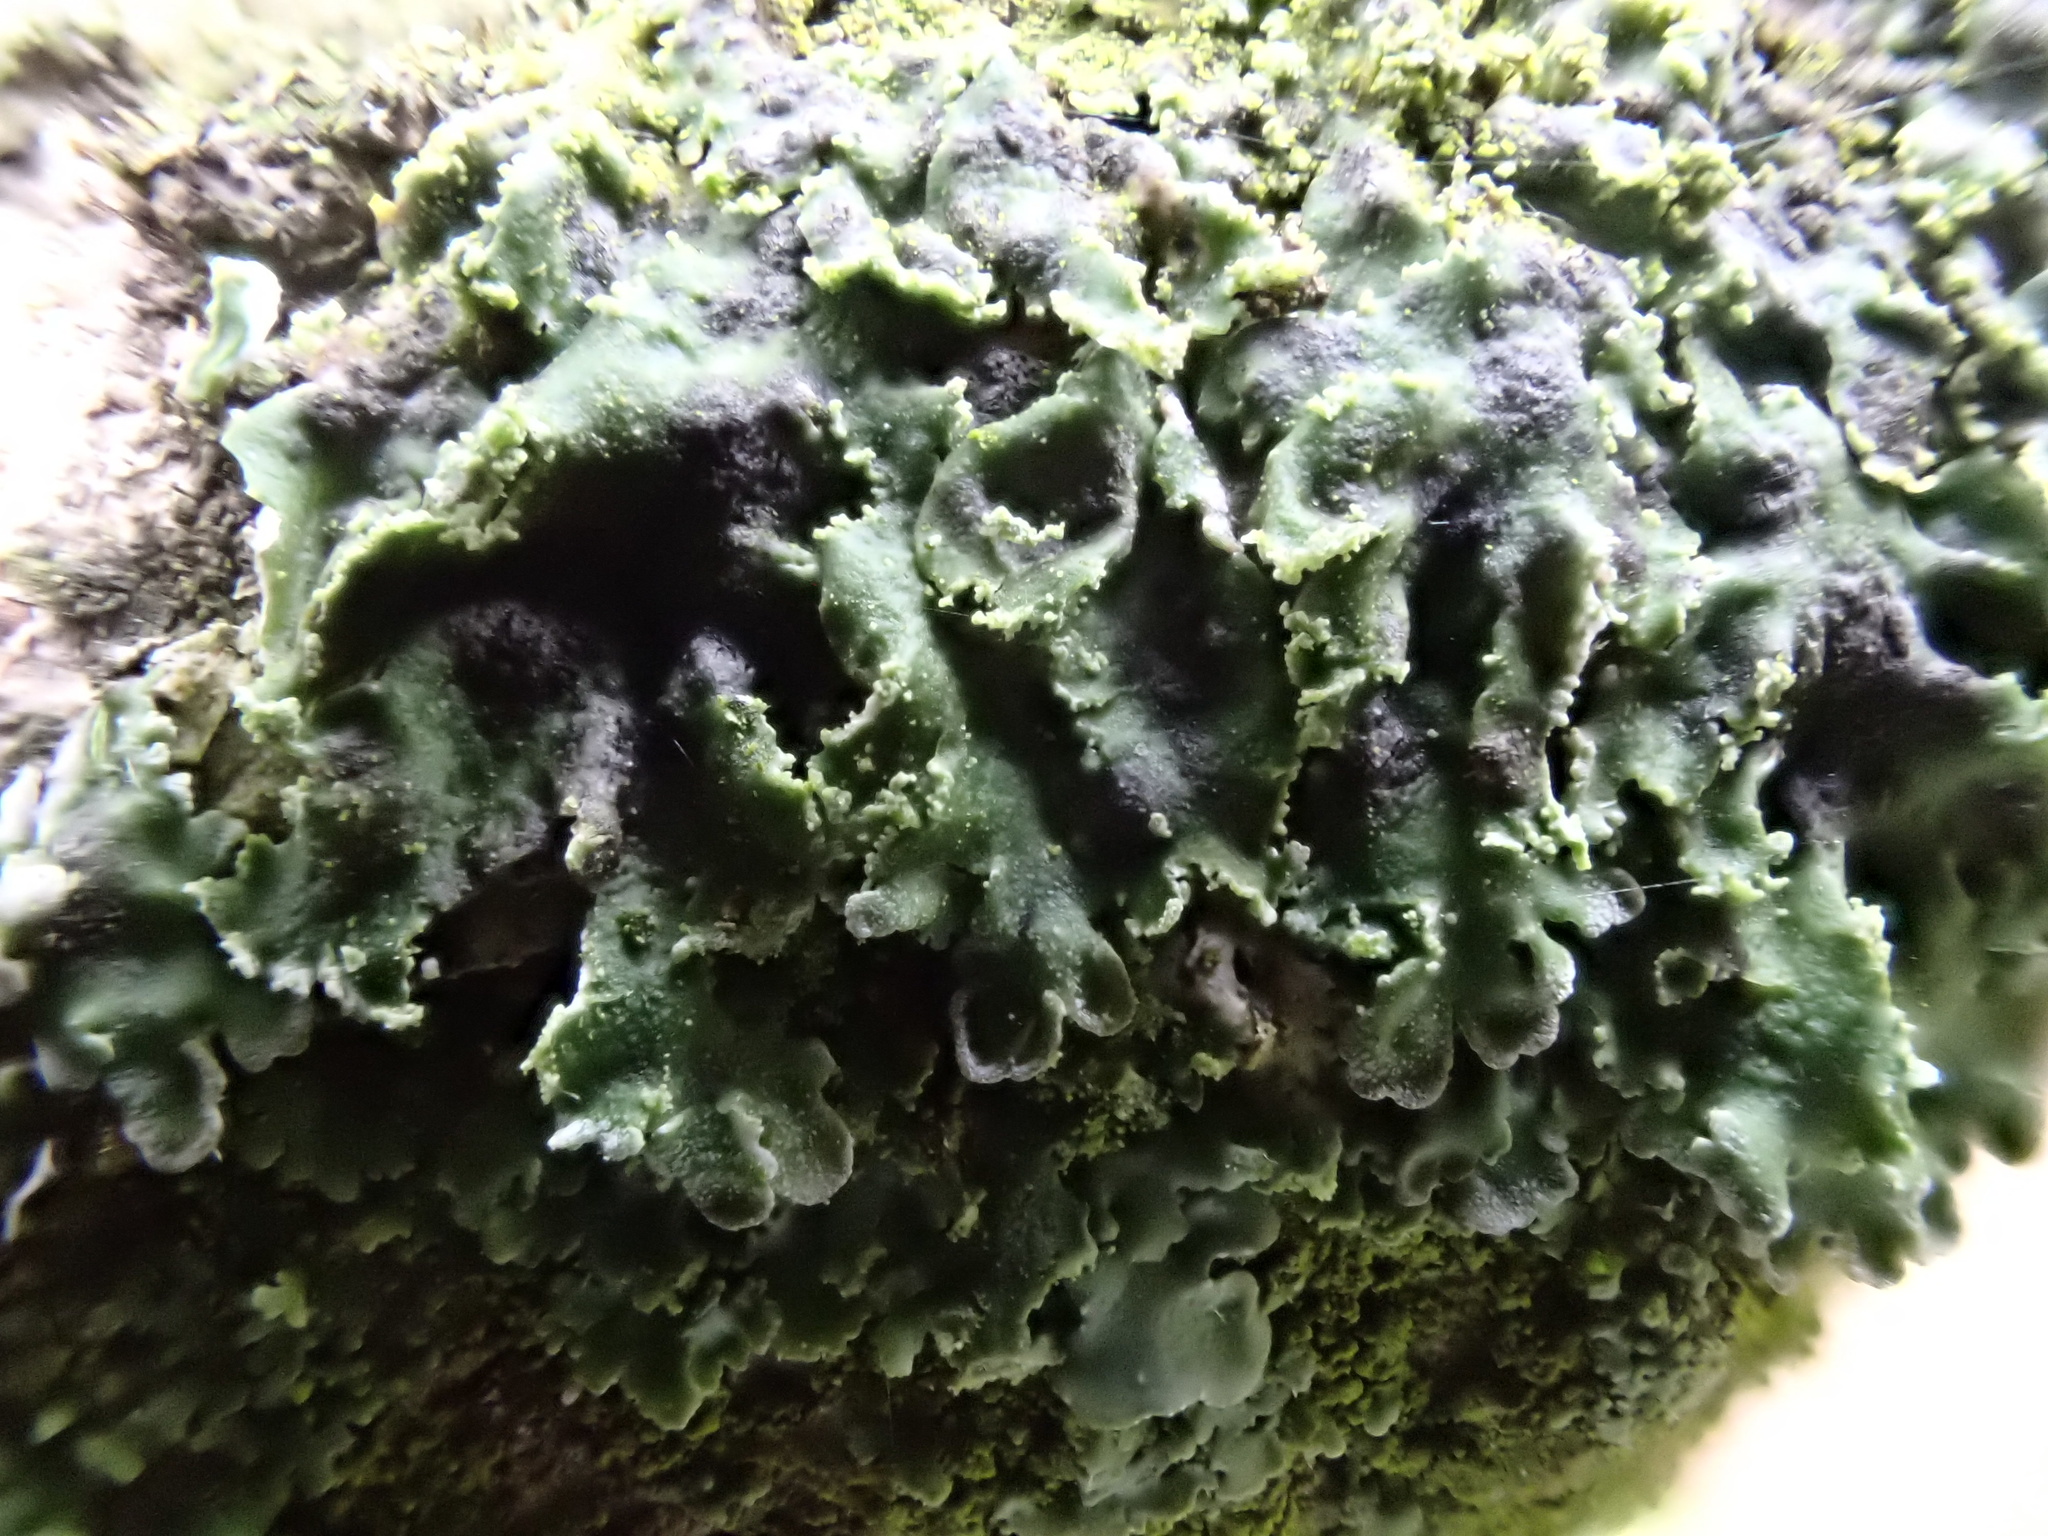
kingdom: Fungi
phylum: Ascomycota
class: Lecanoromycetes
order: Caliciales
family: Physciaceae
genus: Poeltonia
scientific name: Poeltonia grisea
